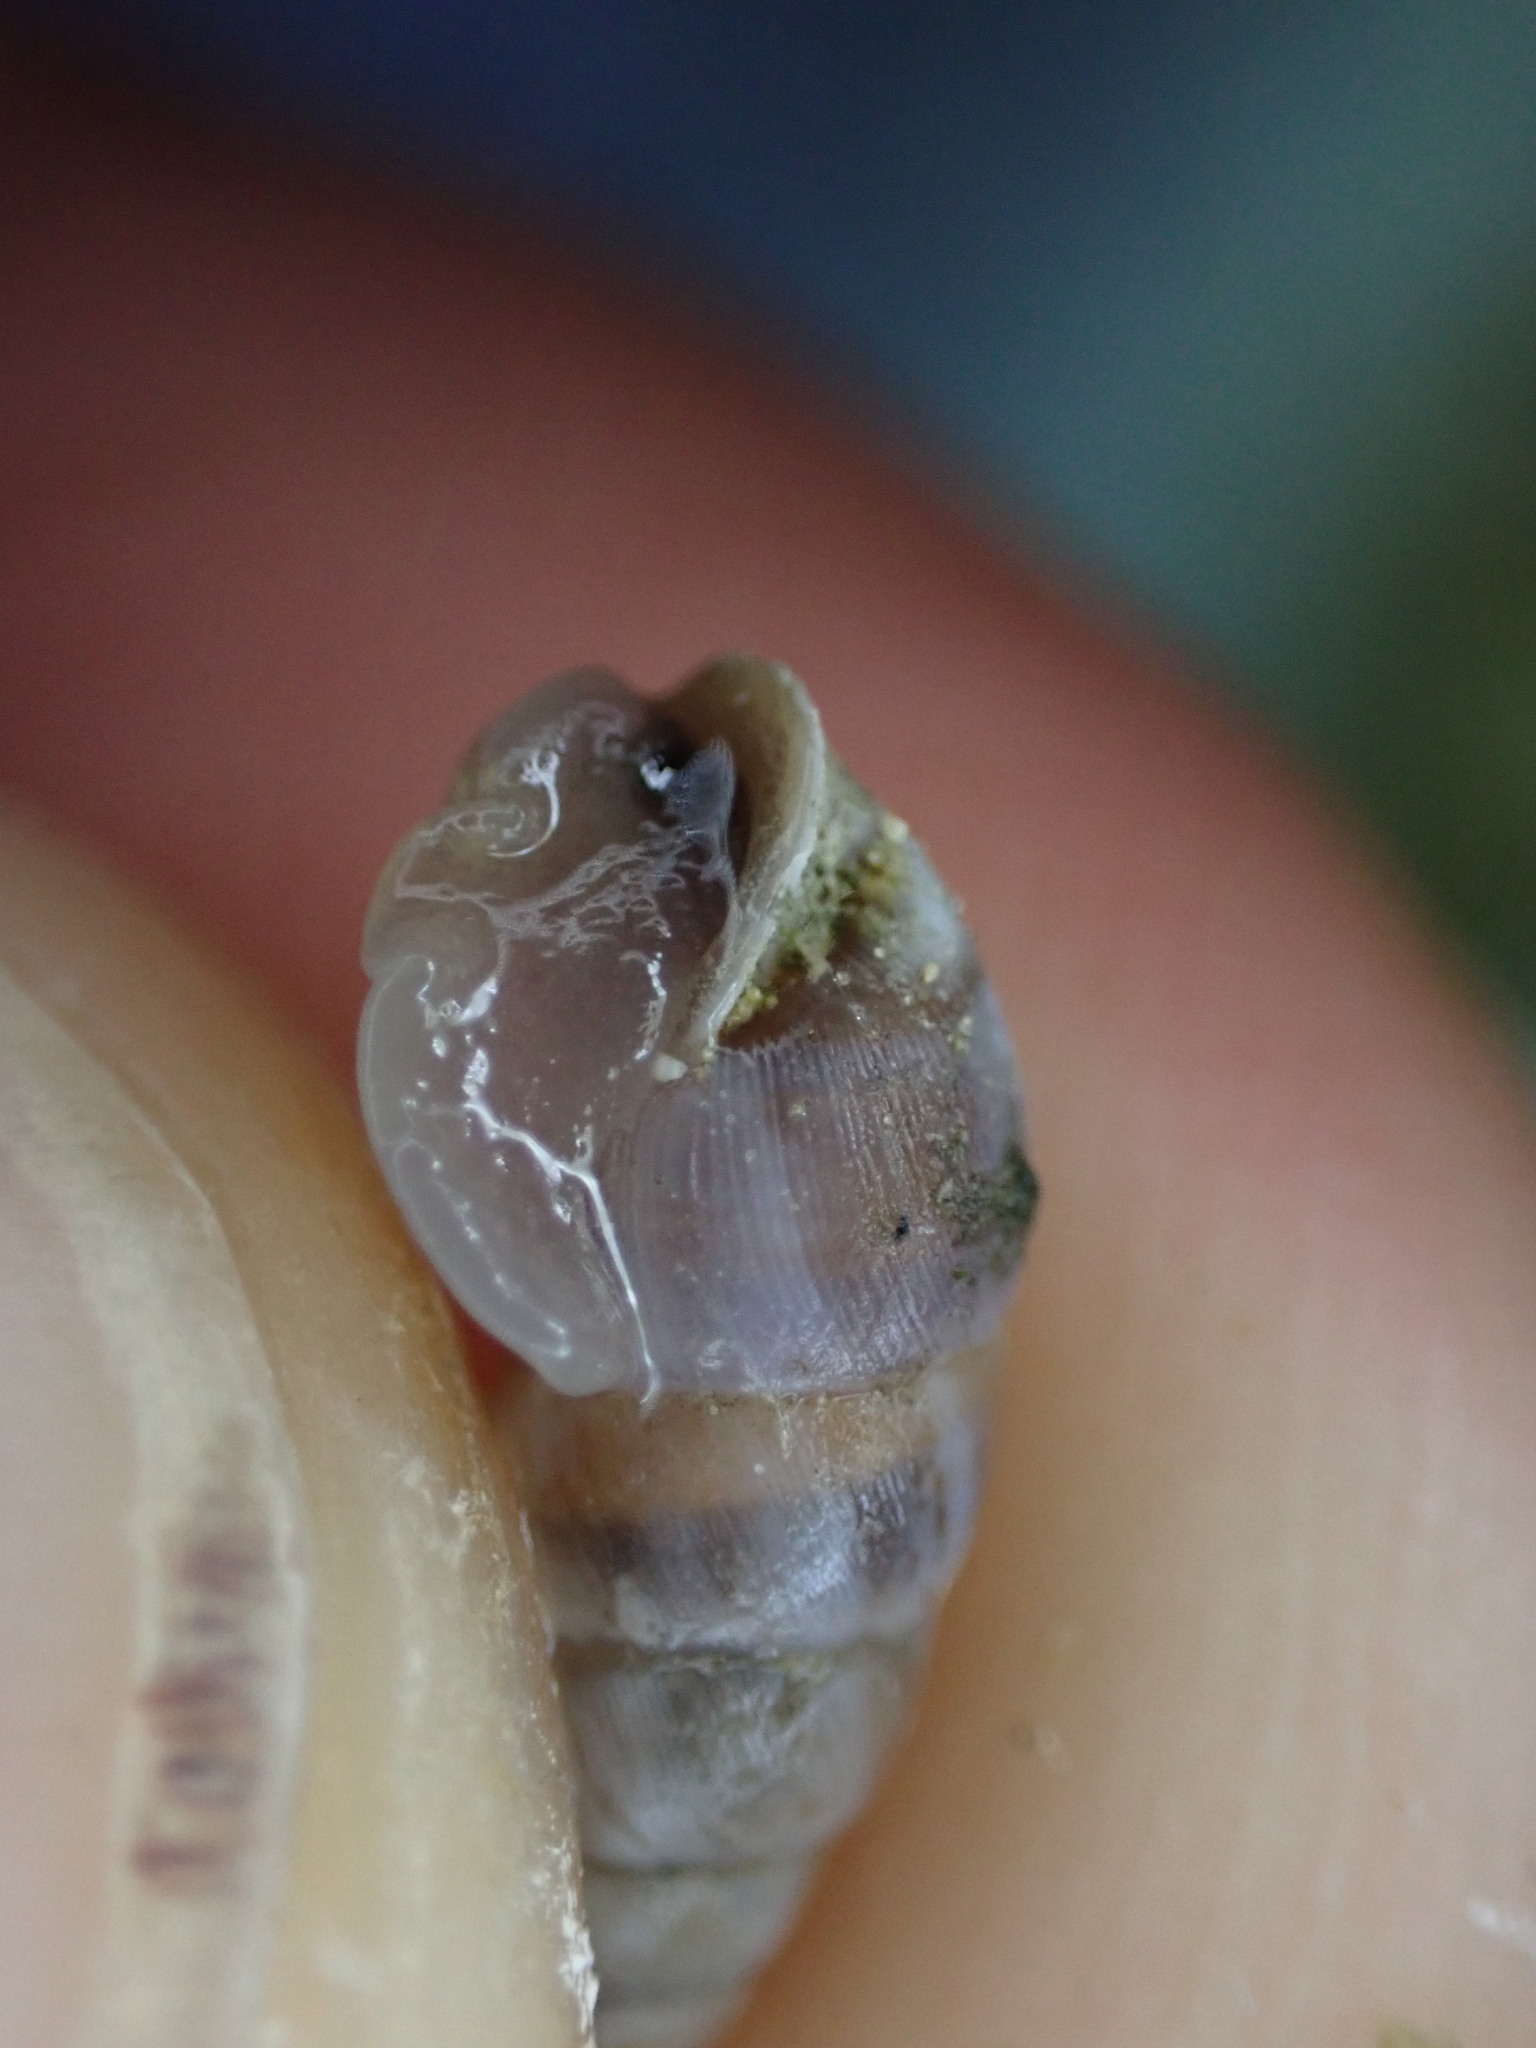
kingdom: Animalia
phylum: Mollusca
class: Gastropoda
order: Stylommatophora
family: Chondrinidae
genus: Solatopupa
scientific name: Solatopupa similis
